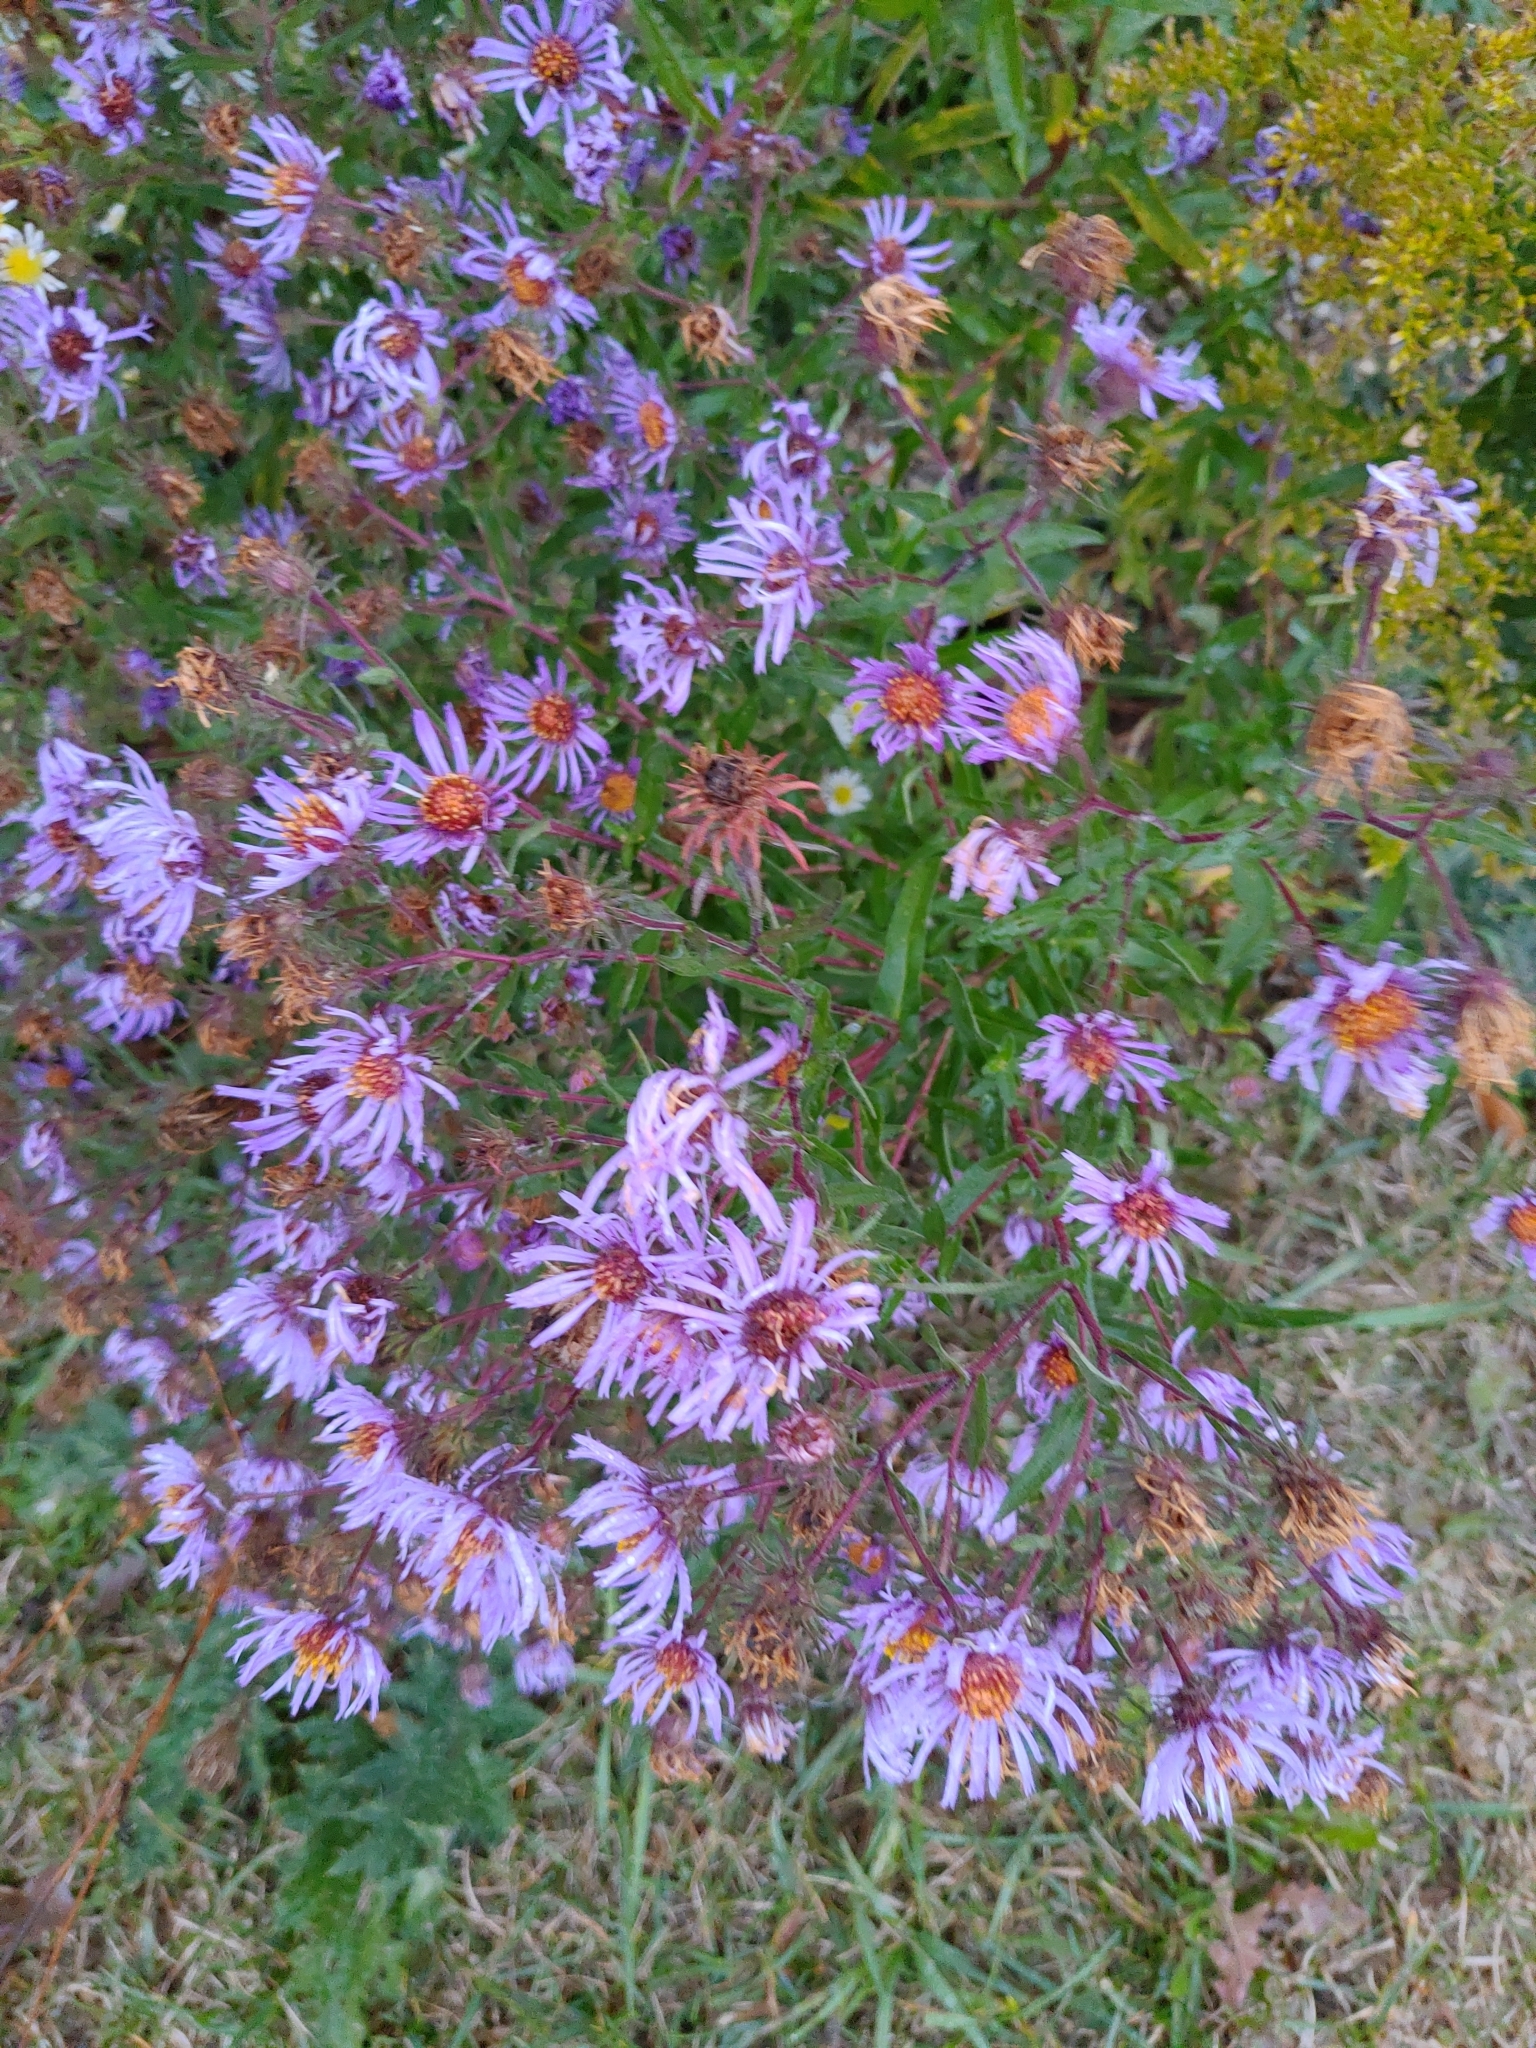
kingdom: Plantae
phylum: Tracheophyta
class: Magnoliopsida
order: Asterales
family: Asteraceae
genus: Symphyotrichum
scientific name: Symphyotrichum novae-angliae
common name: Michaelmas daisy
